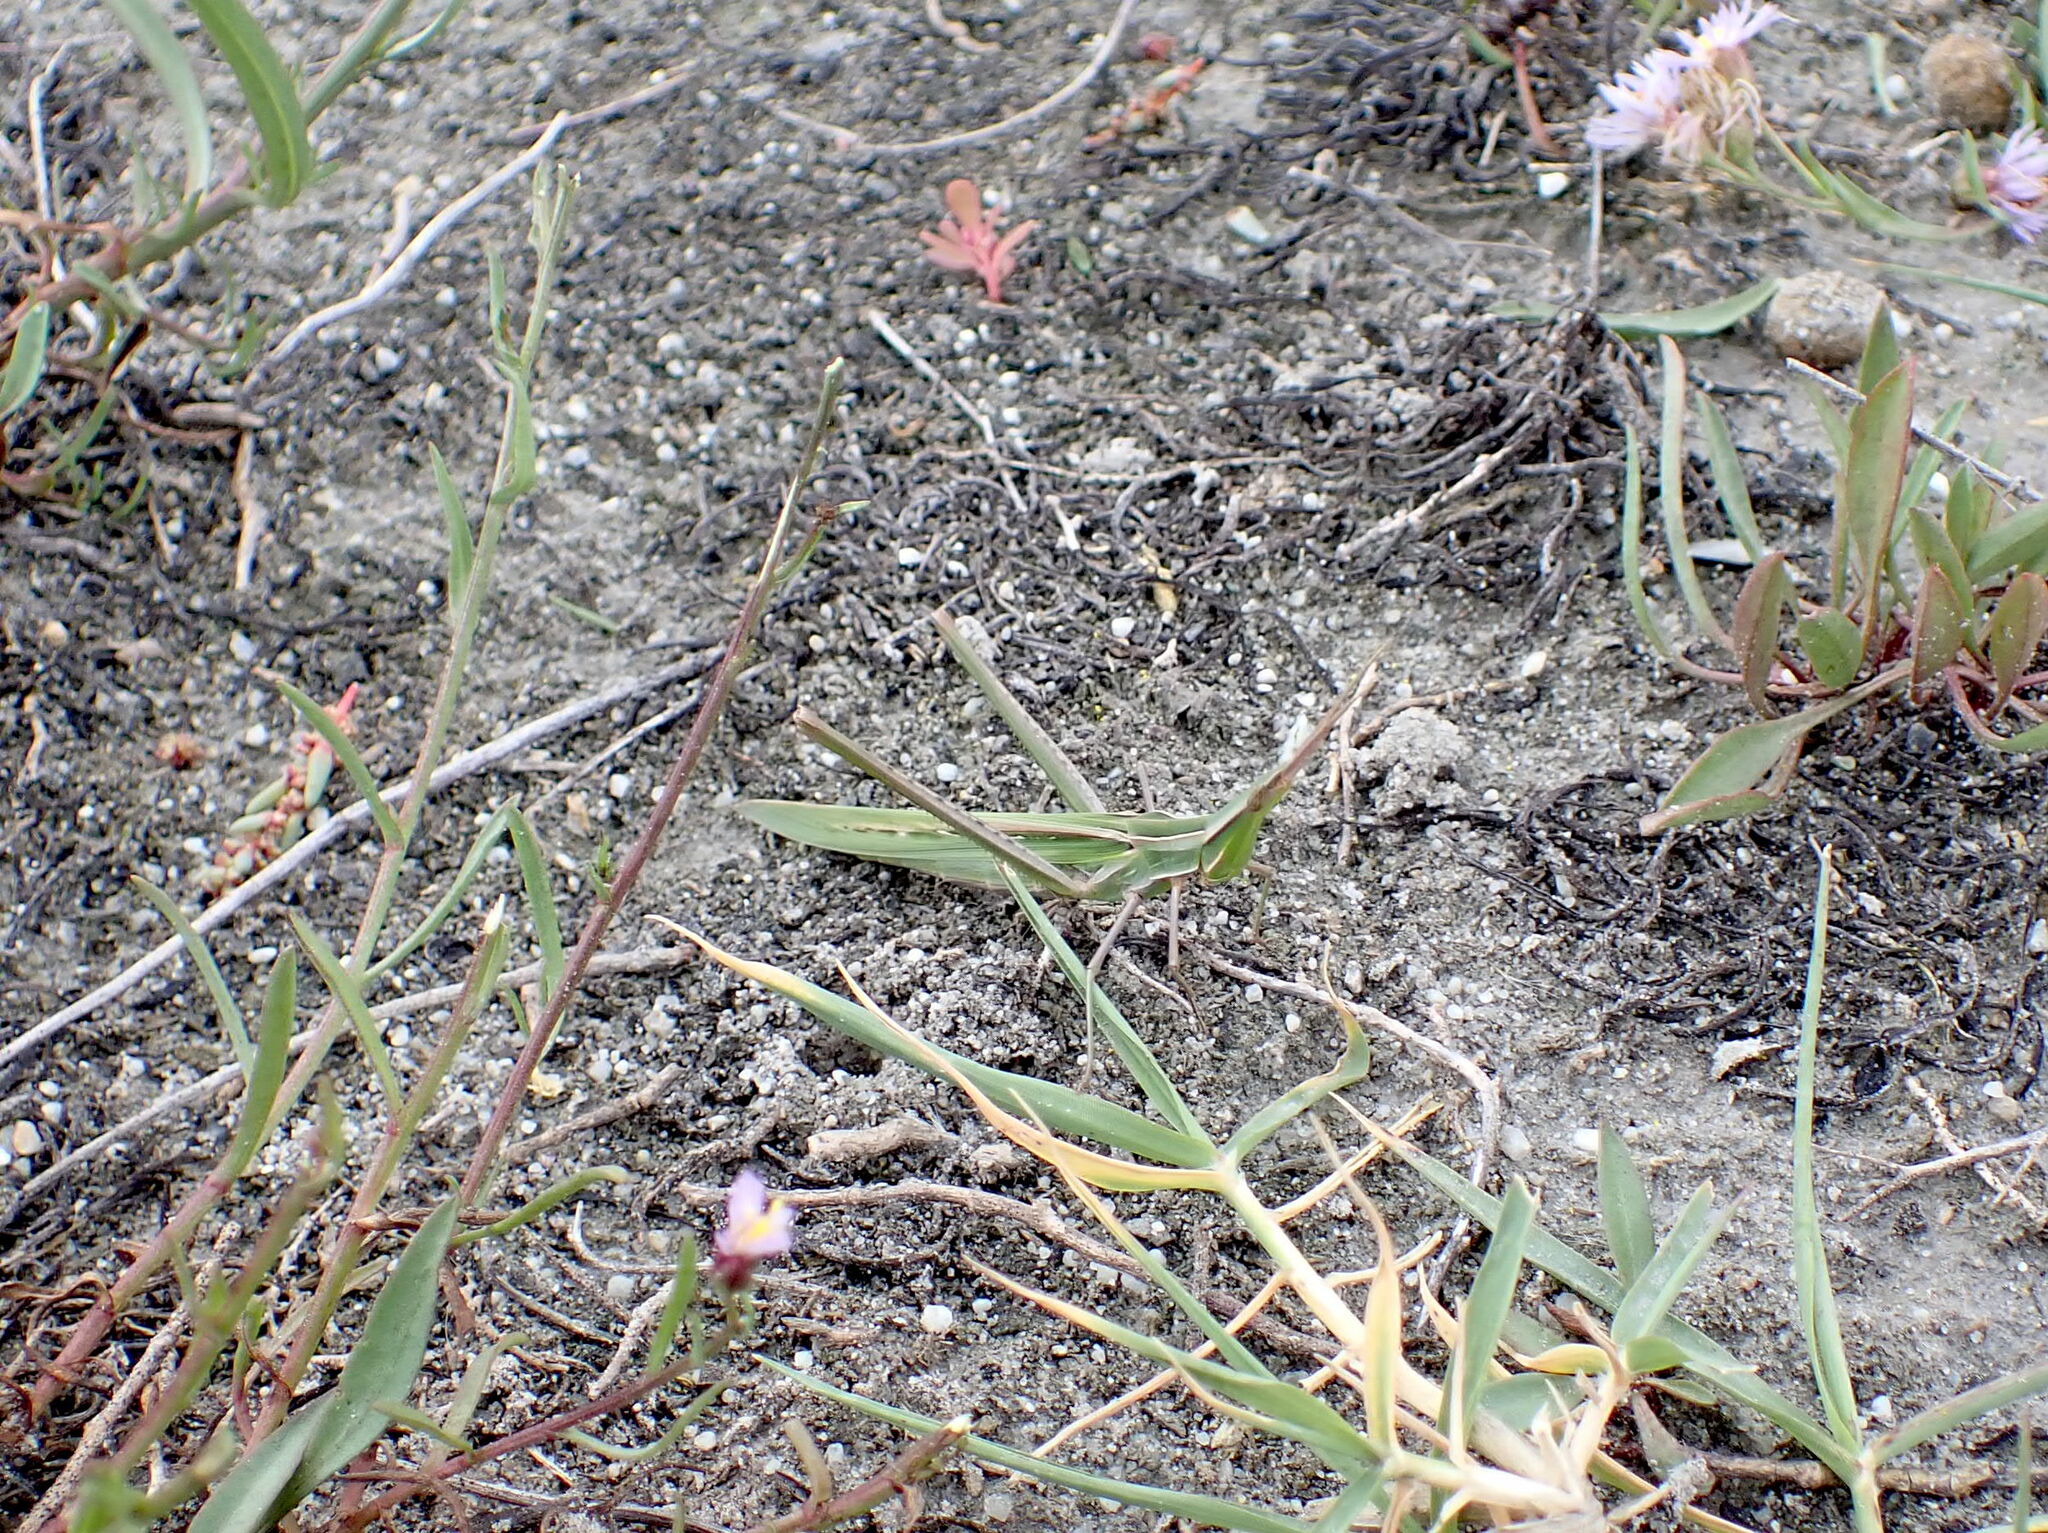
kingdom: Animalia
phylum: Arthropoda
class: Insecta
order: Orthoptera
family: Acrididae
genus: Acrida
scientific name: Acrida ungarica
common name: Common cone-headed grasshopper
